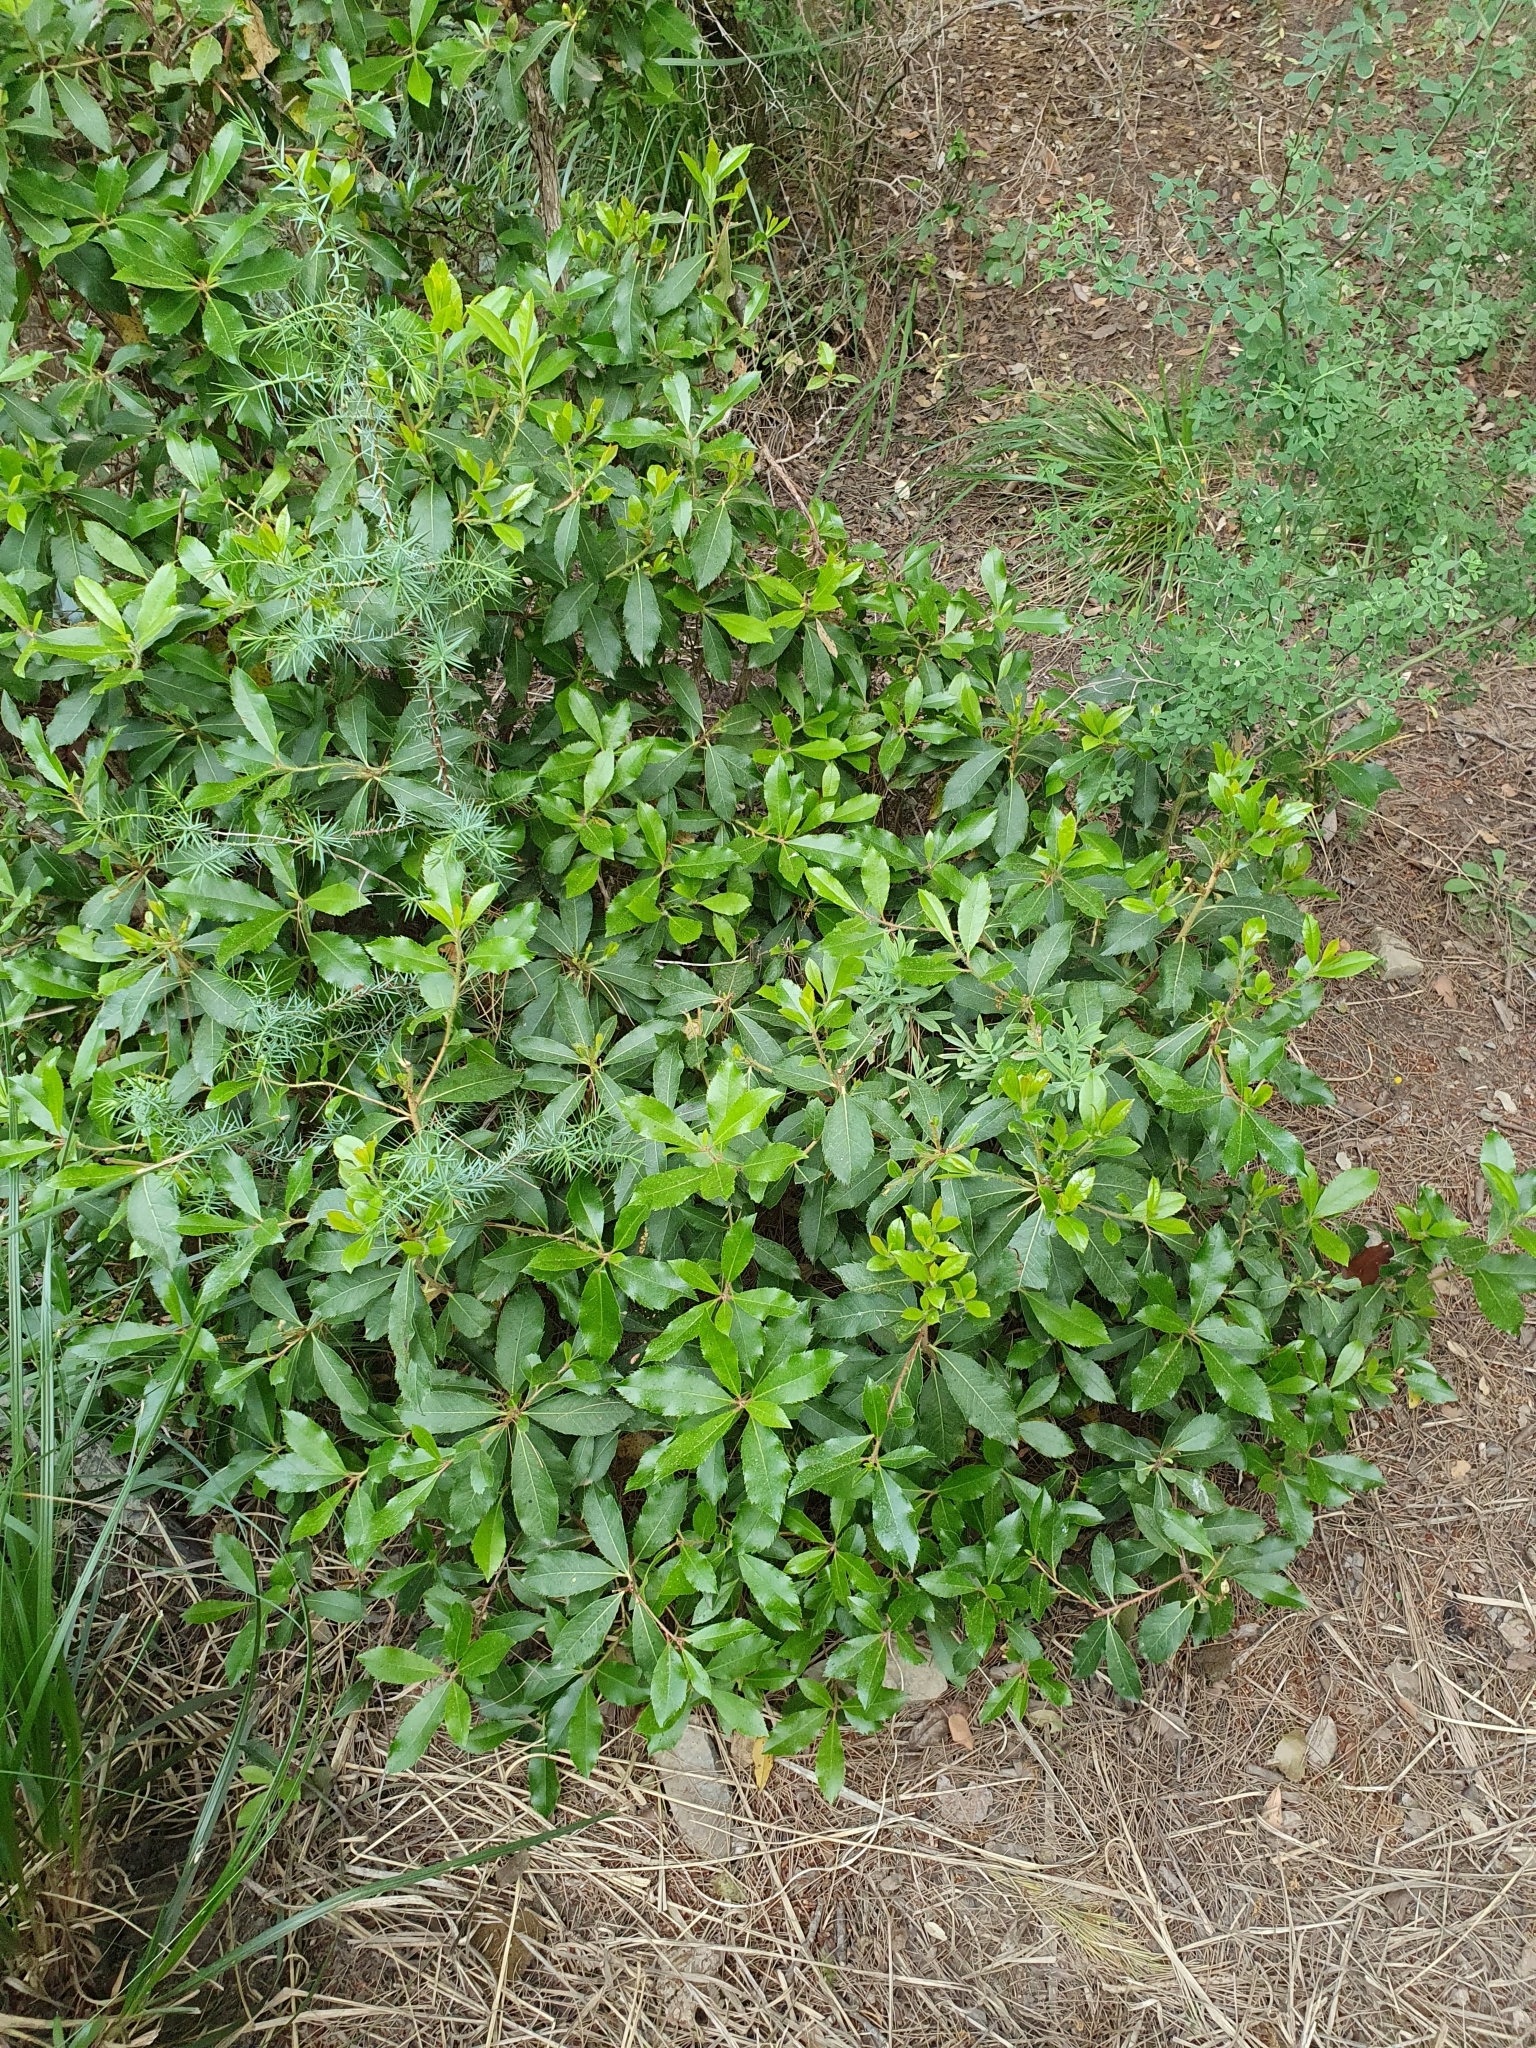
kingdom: Plantae
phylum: Tracheophyta
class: Magnoliopsida
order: Ericales
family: Ericaceae
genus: Arbutus
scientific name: Arbutus unedo
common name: Strawberry-tree
